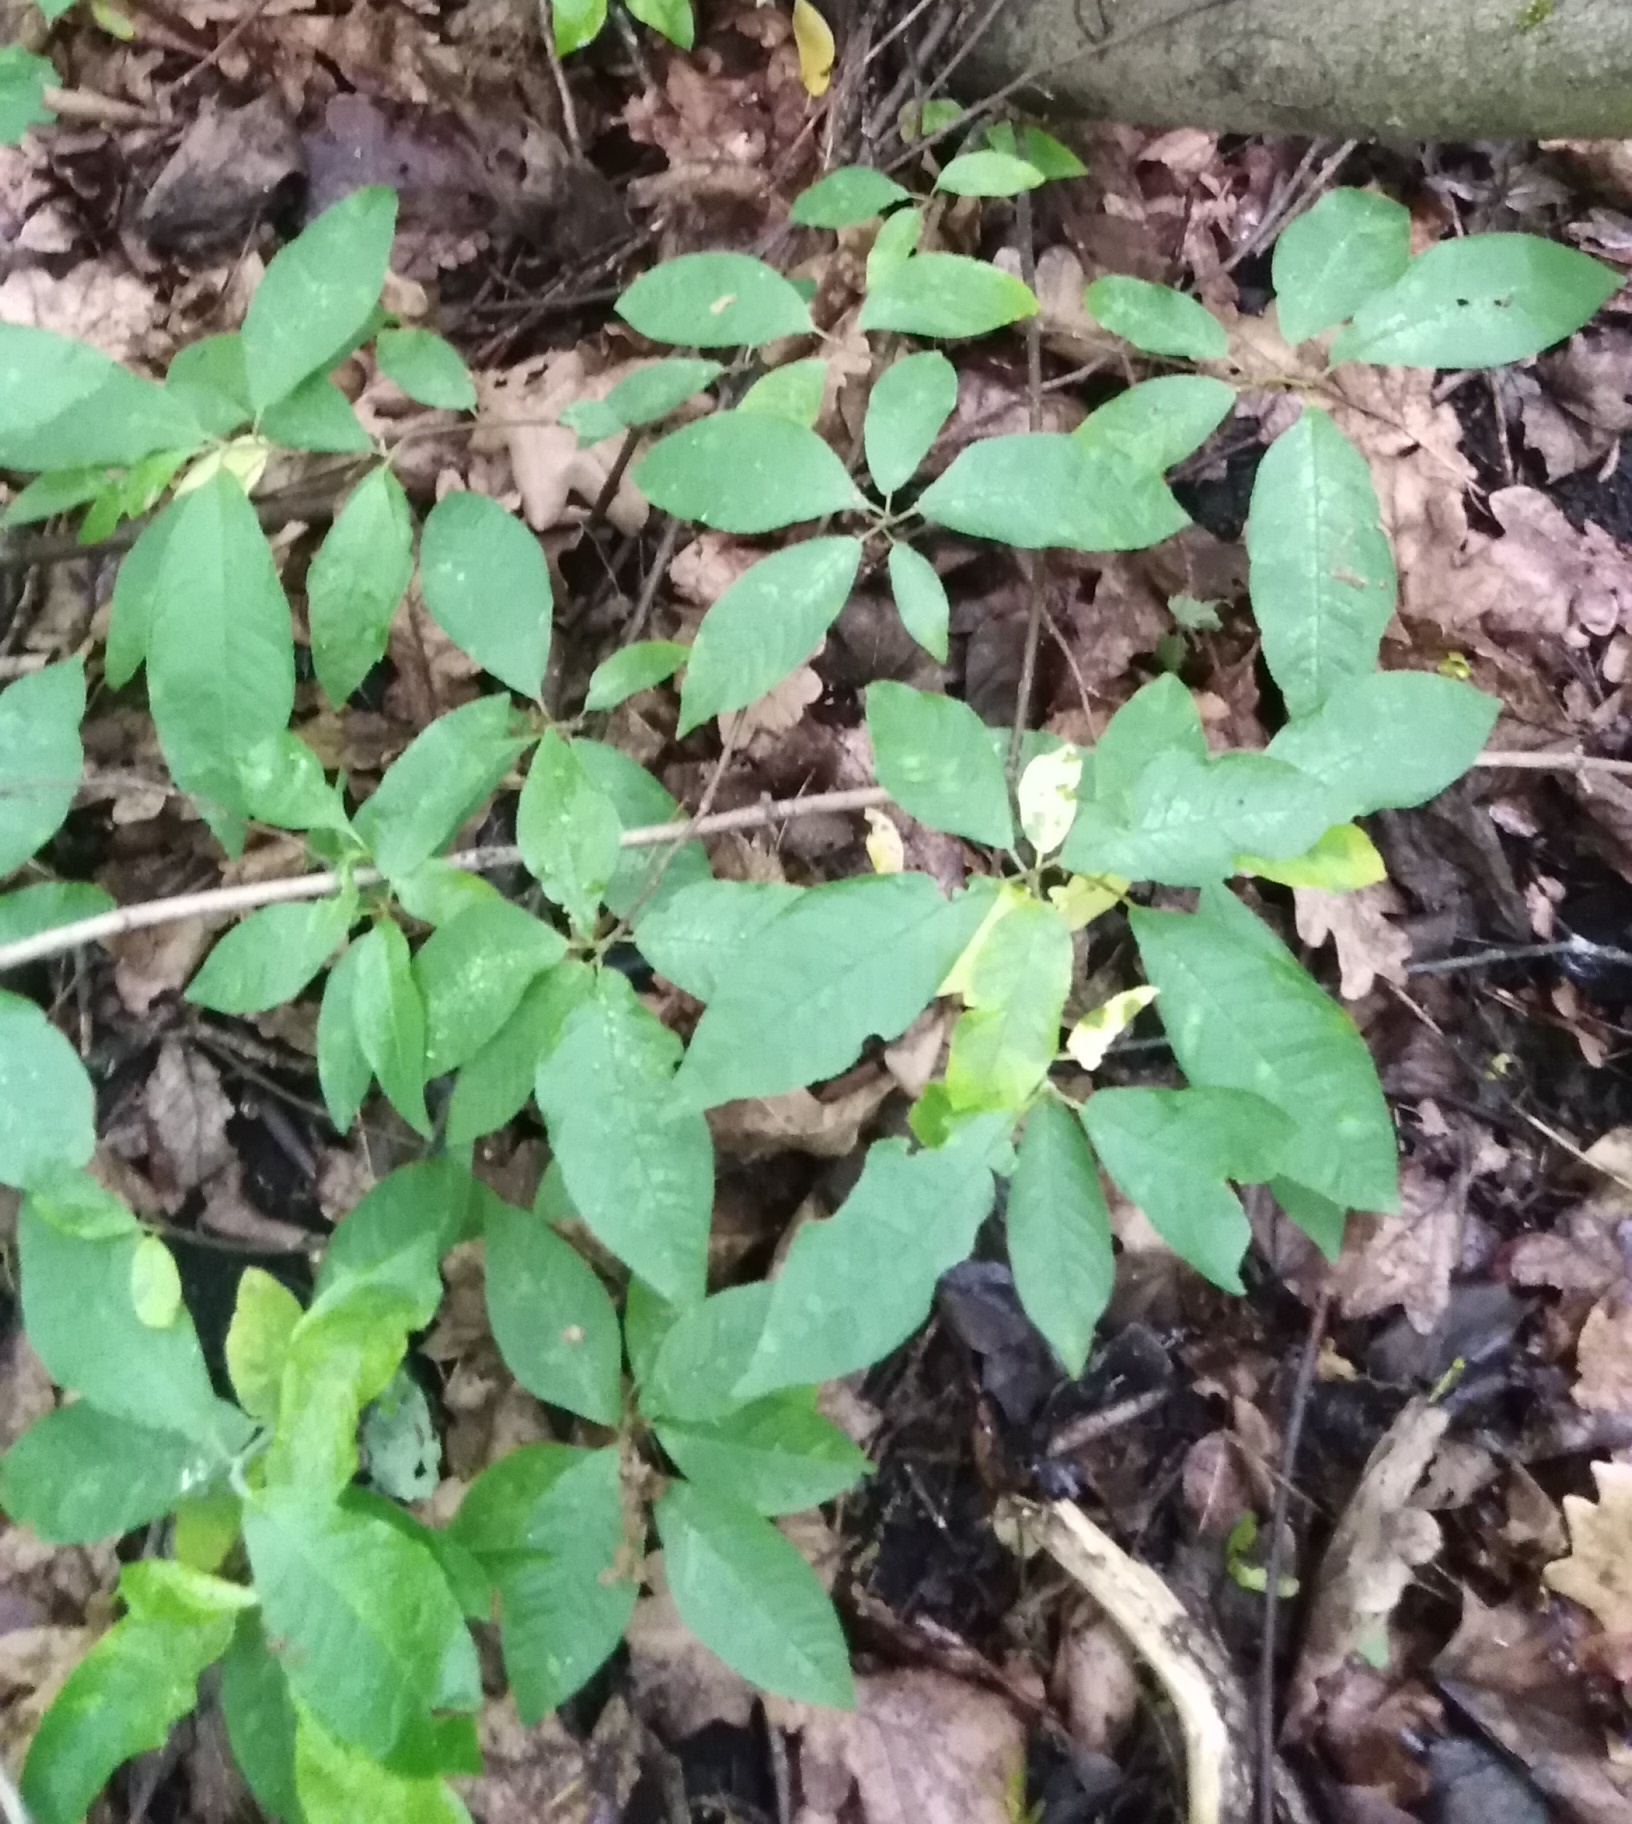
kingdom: Plantae
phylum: Tracheophyta
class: Magnoliopsida
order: Rosales
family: Rosaceae
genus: Prunus
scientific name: Prunus padus
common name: Bird cherry
